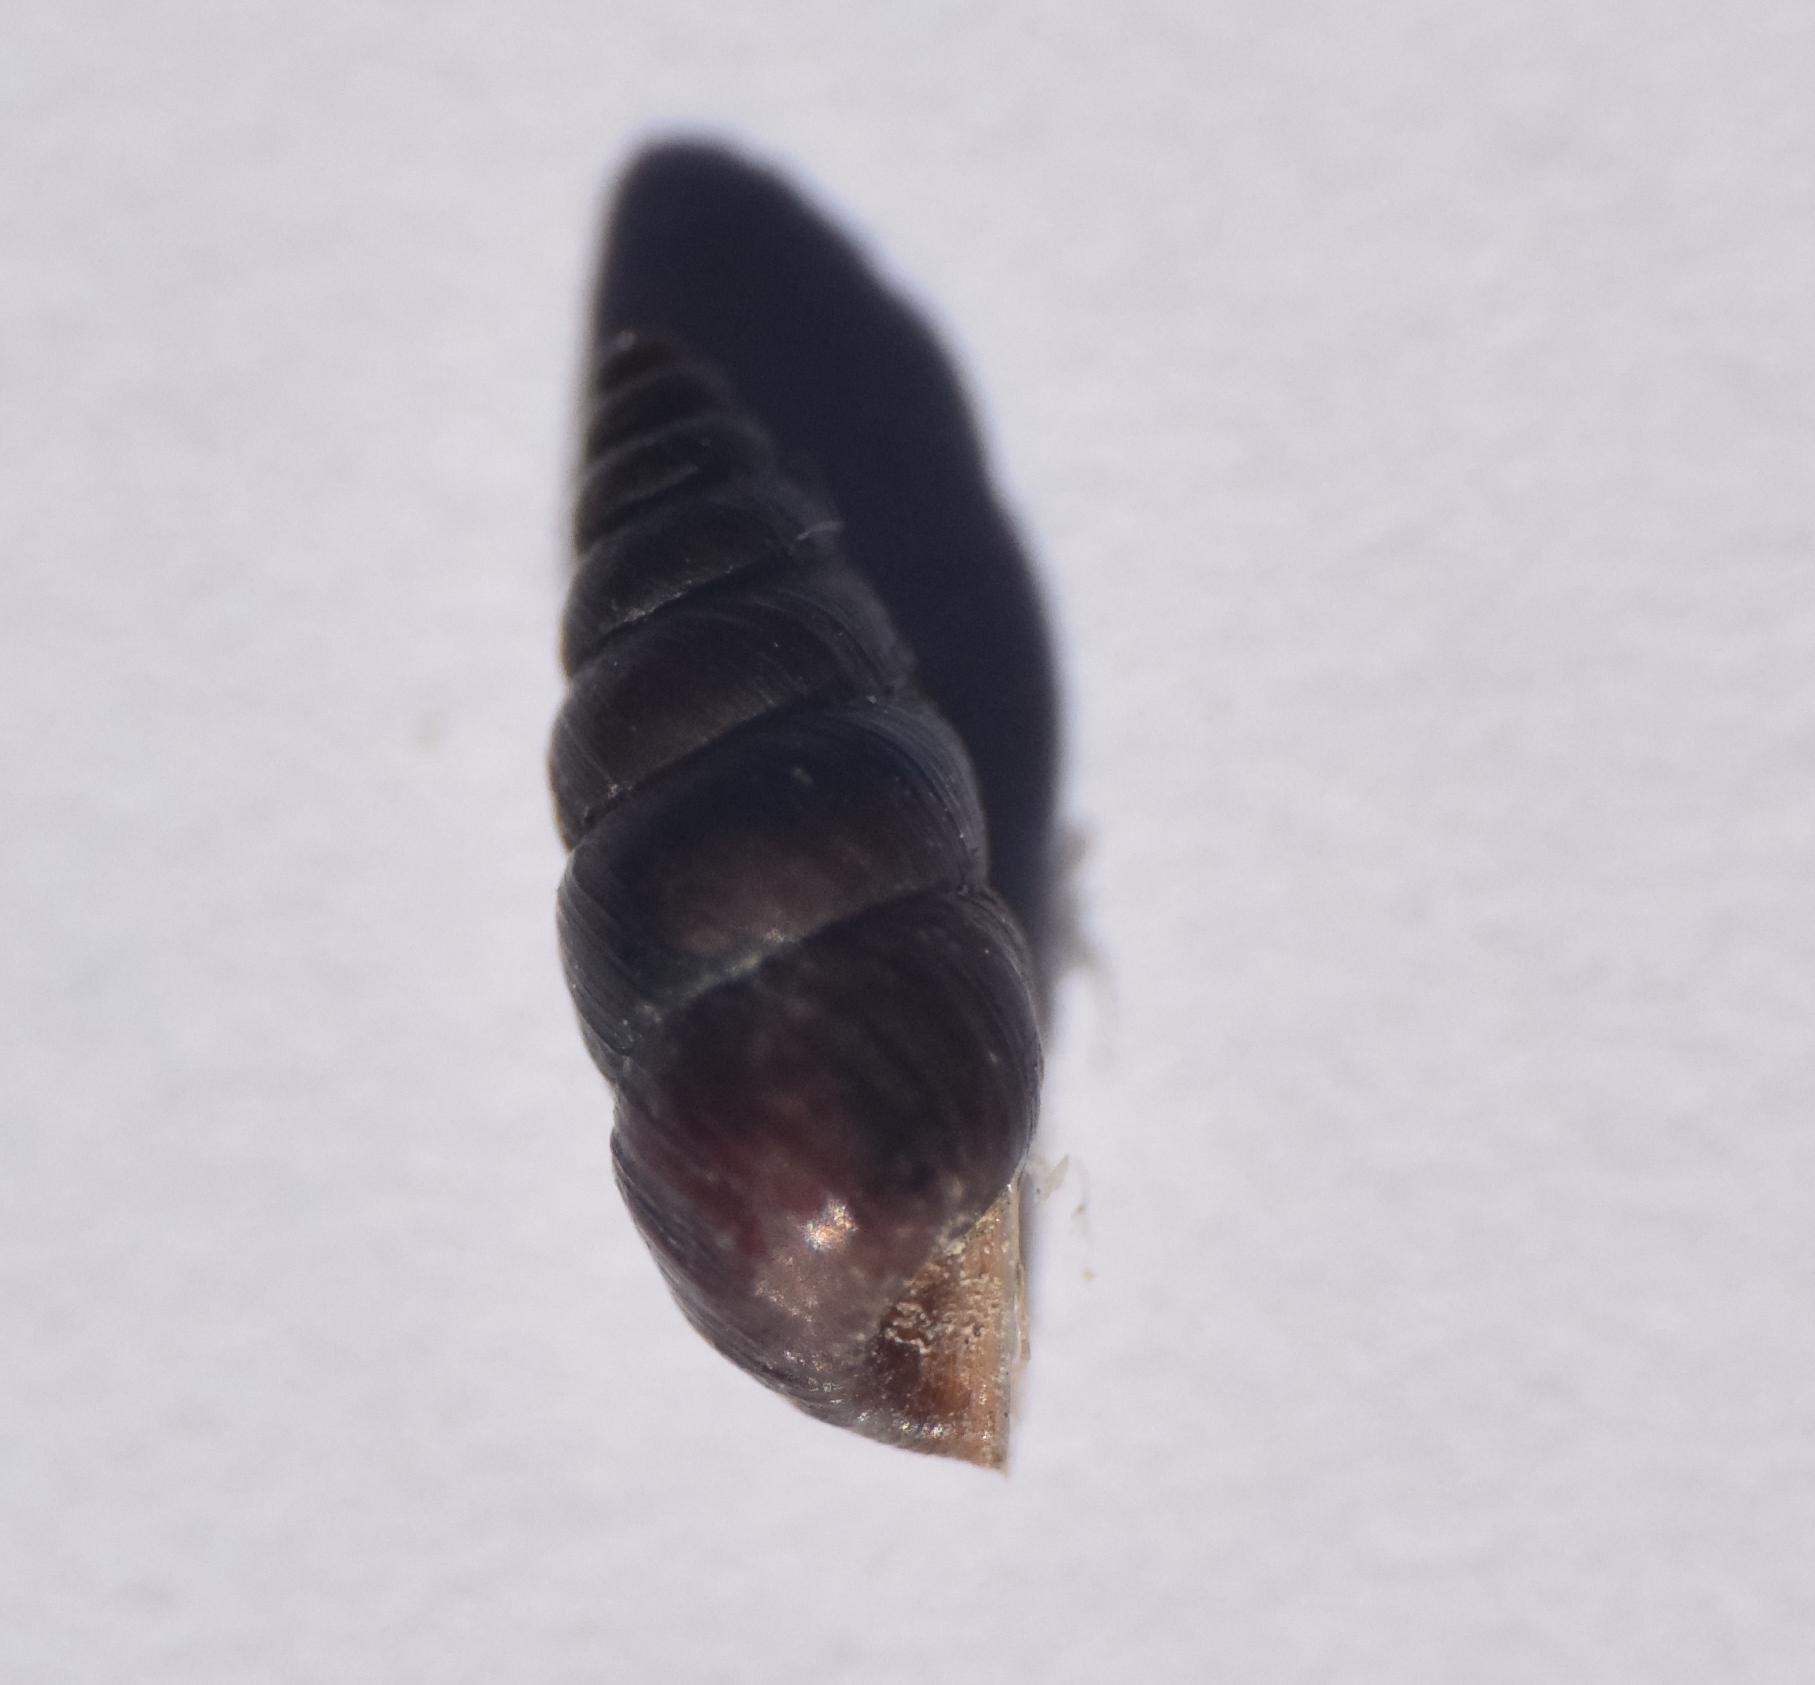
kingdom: Animalia
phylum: Mollusca
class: Gastropoda
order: Stylommatophora
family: Chondrinidae
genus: Chondrina
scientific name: Chondrina avenacea
